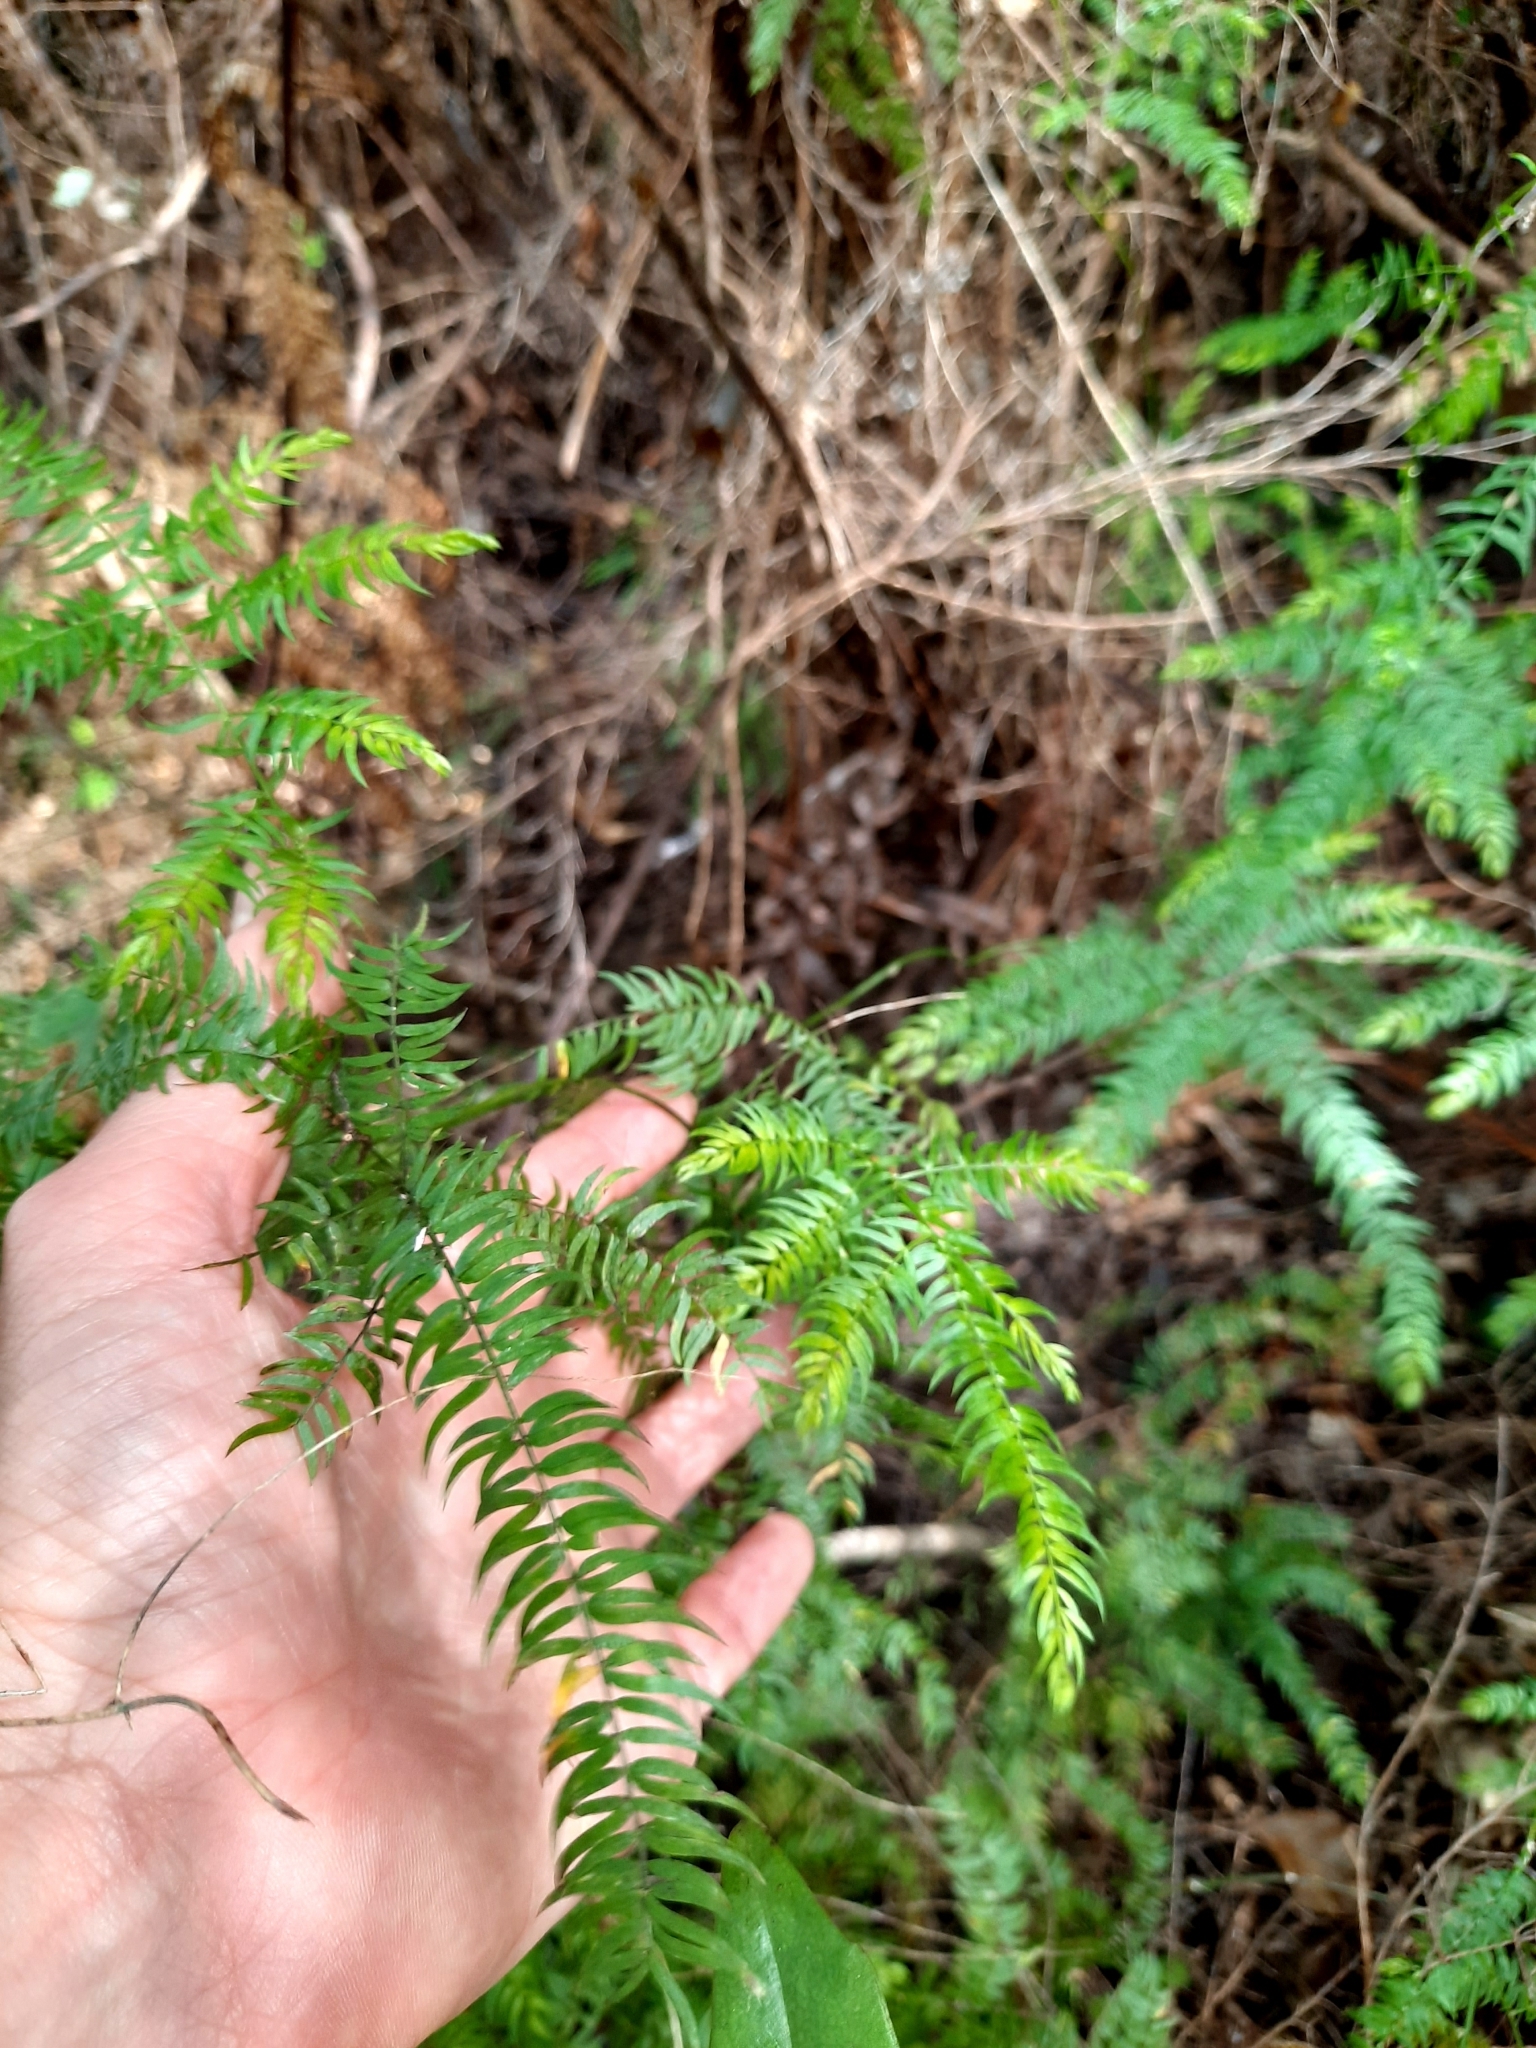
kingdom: Plantae
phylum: Tracheophyta
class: Liliopsida
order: Asparagales
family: Asparagaceae
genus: Asparagus
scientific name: Asparagus scandens
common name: Asparagus-fern
